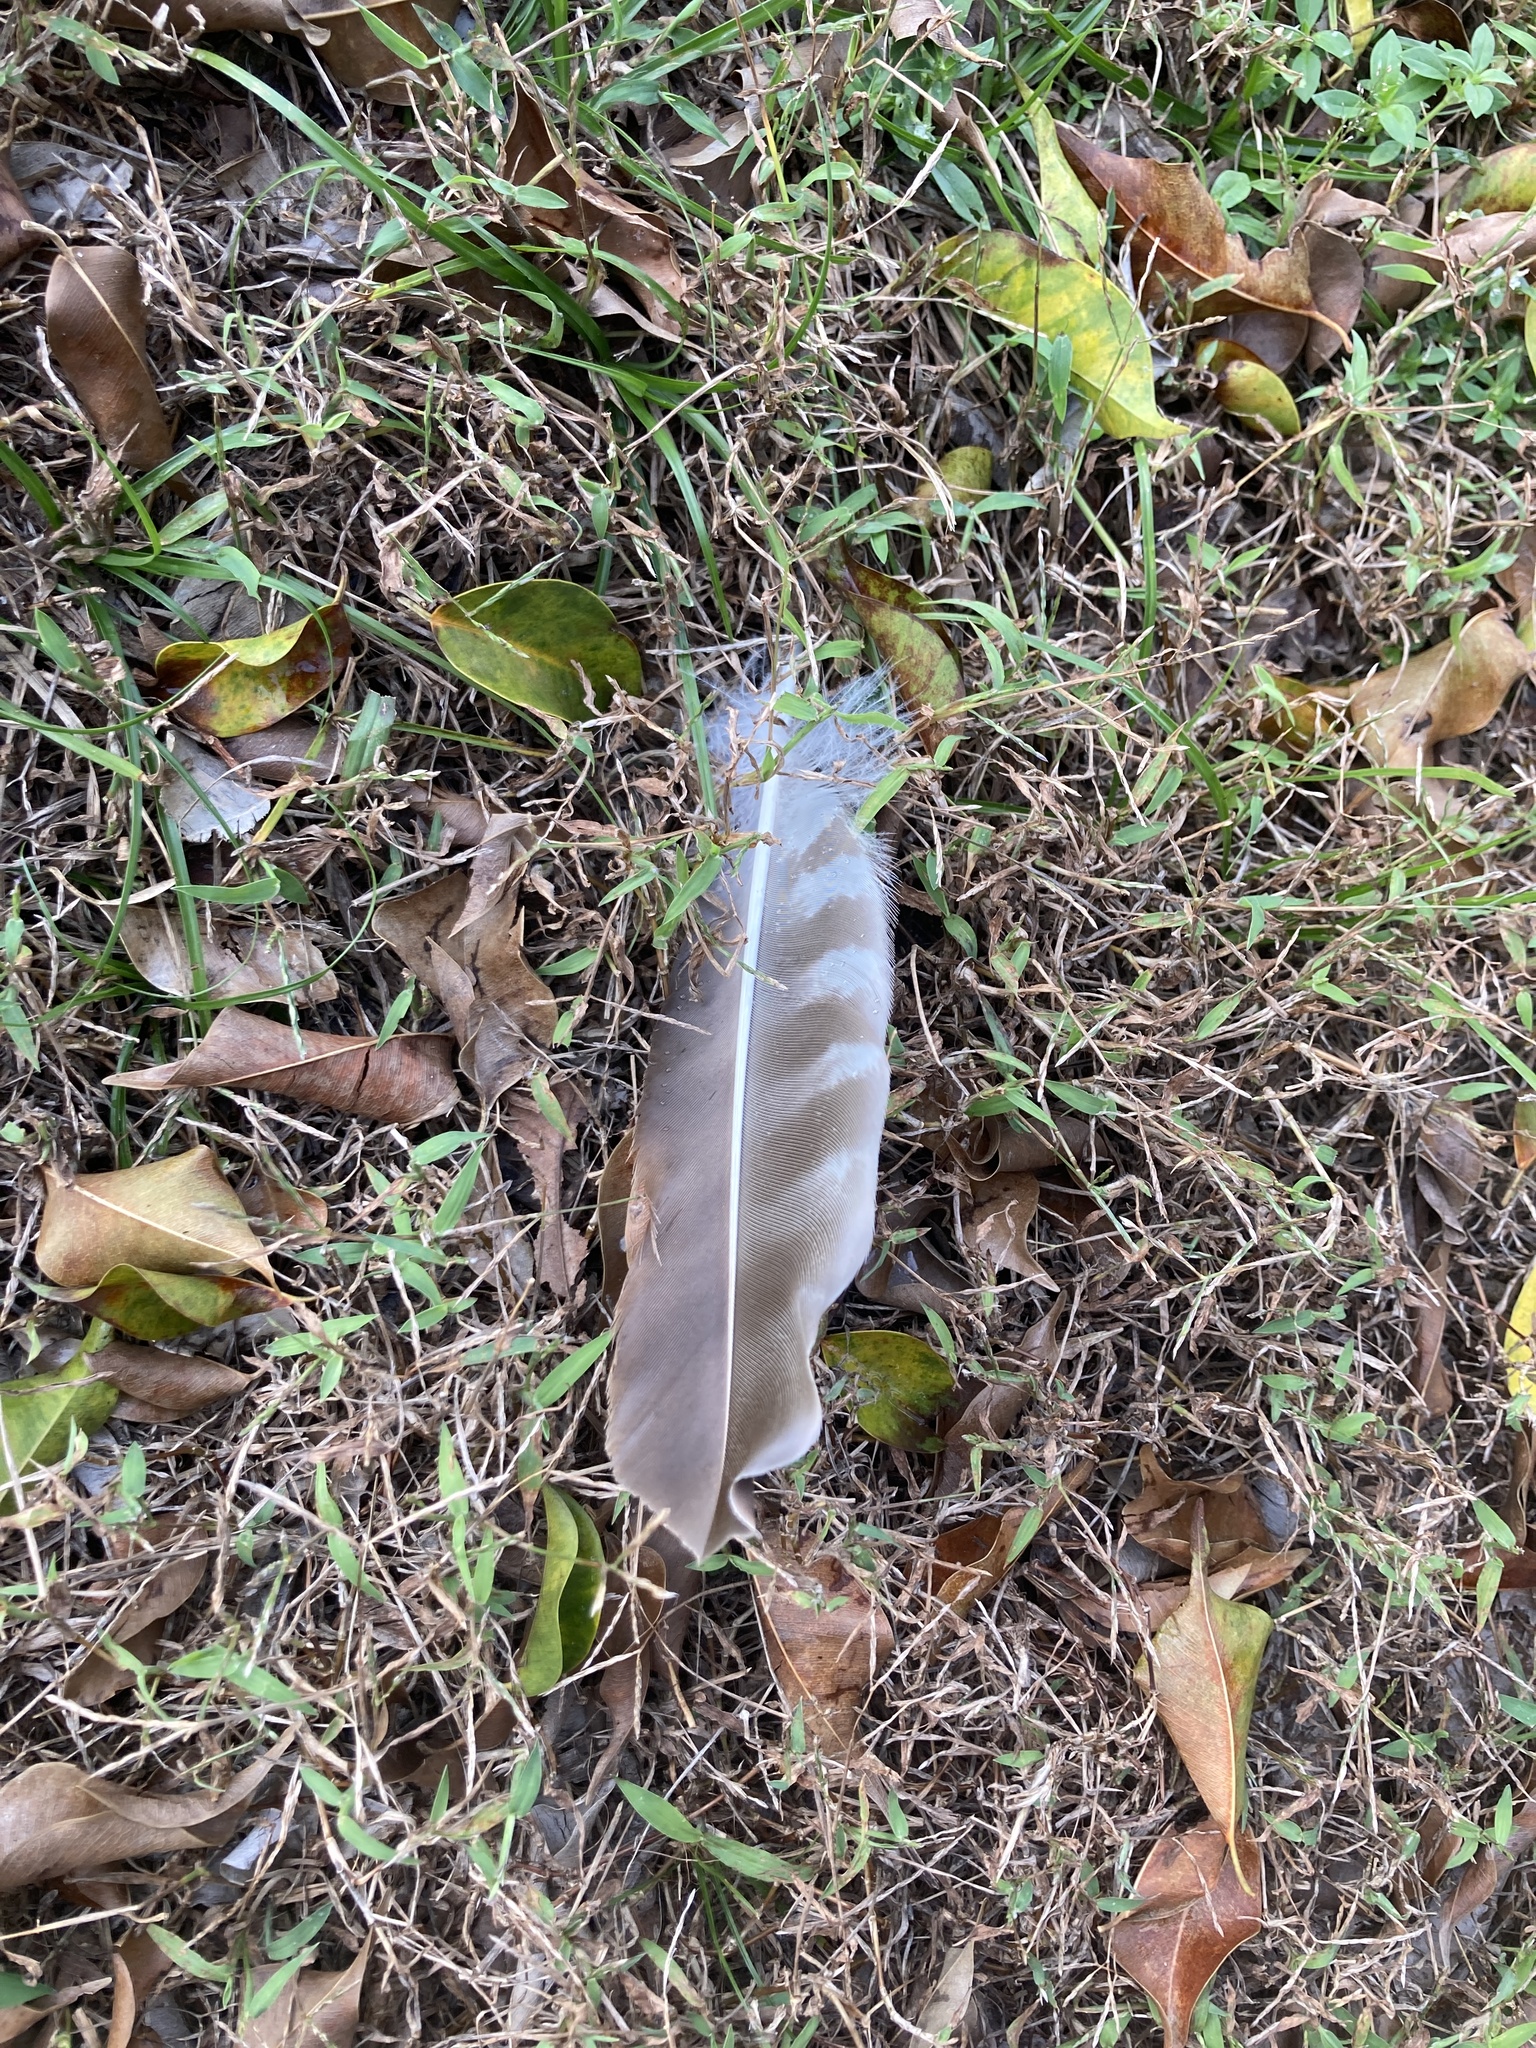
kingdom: Animalia
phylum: Chordata
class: Aves
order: Accipitriformes
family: Pandionidae
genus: Pandion
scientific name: Pandion haliaetus
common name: Osprey
